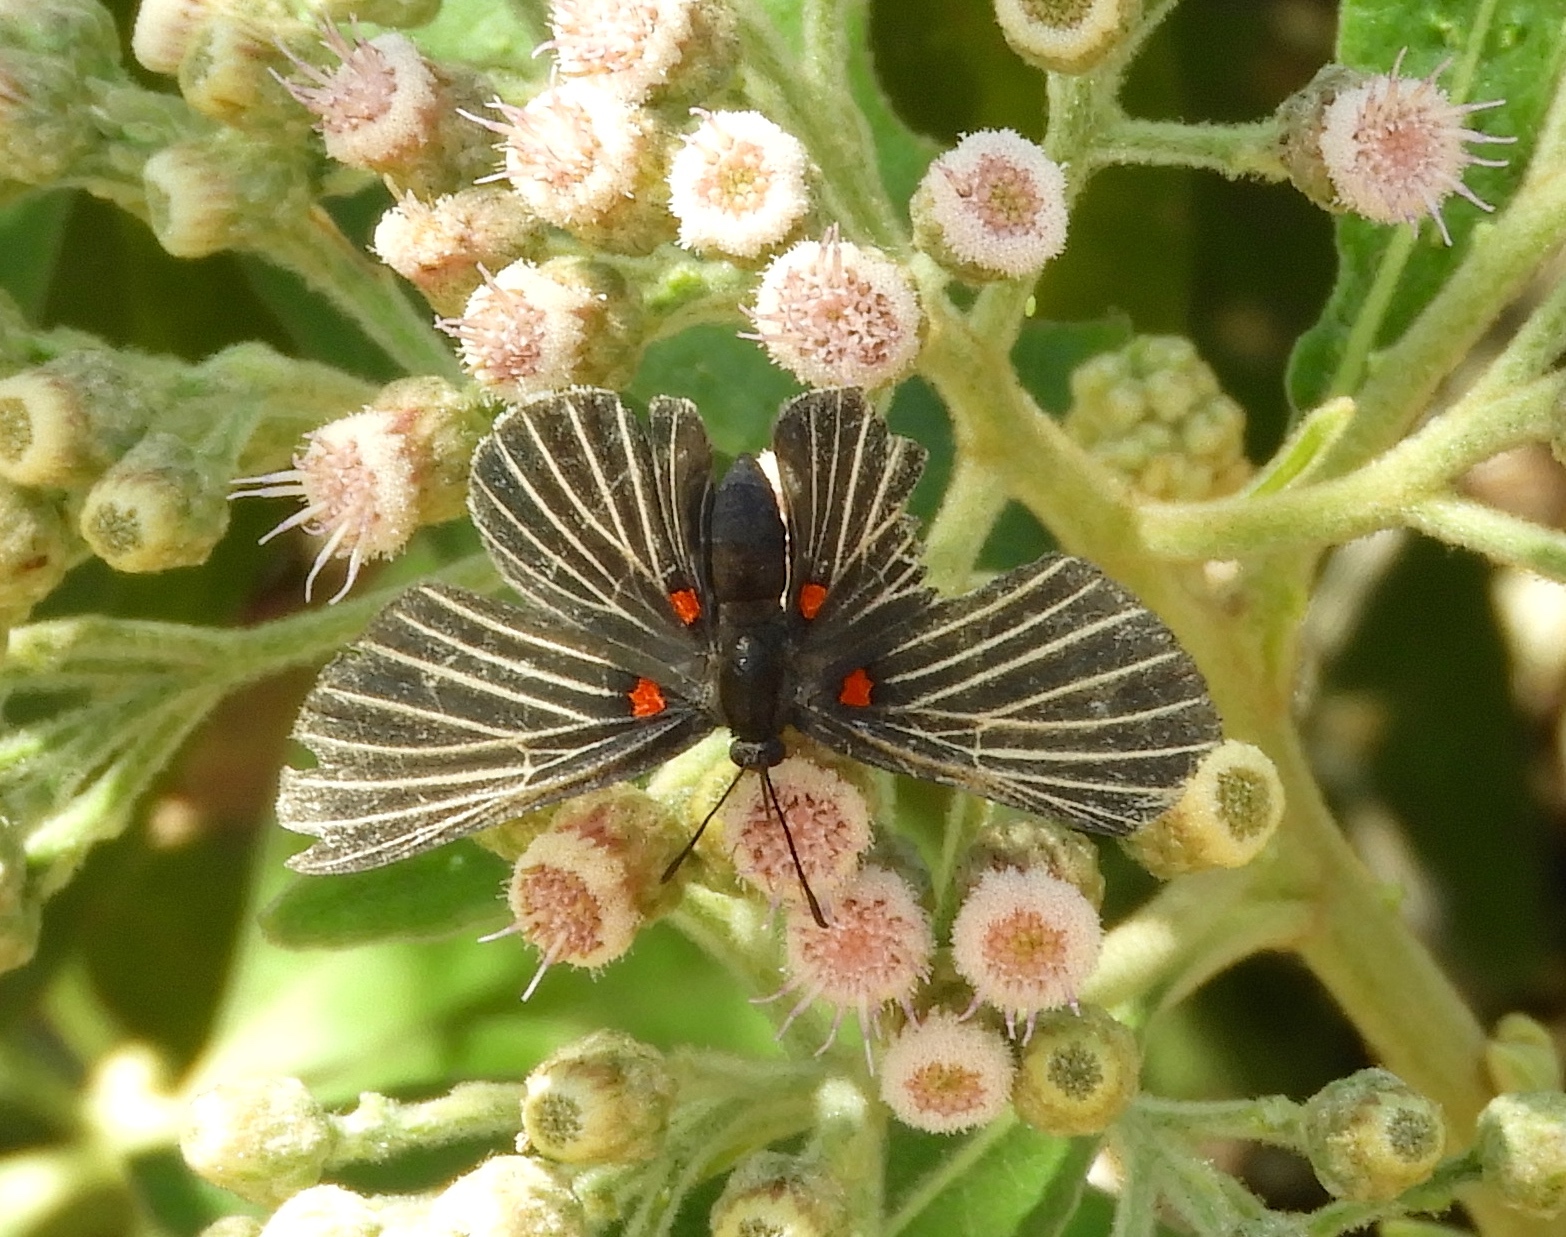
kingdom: Animalia
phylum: Arthropoda
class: Insecta
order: Lepidoptera
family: Lycaenidae
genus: Melanis
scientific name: Melanis
